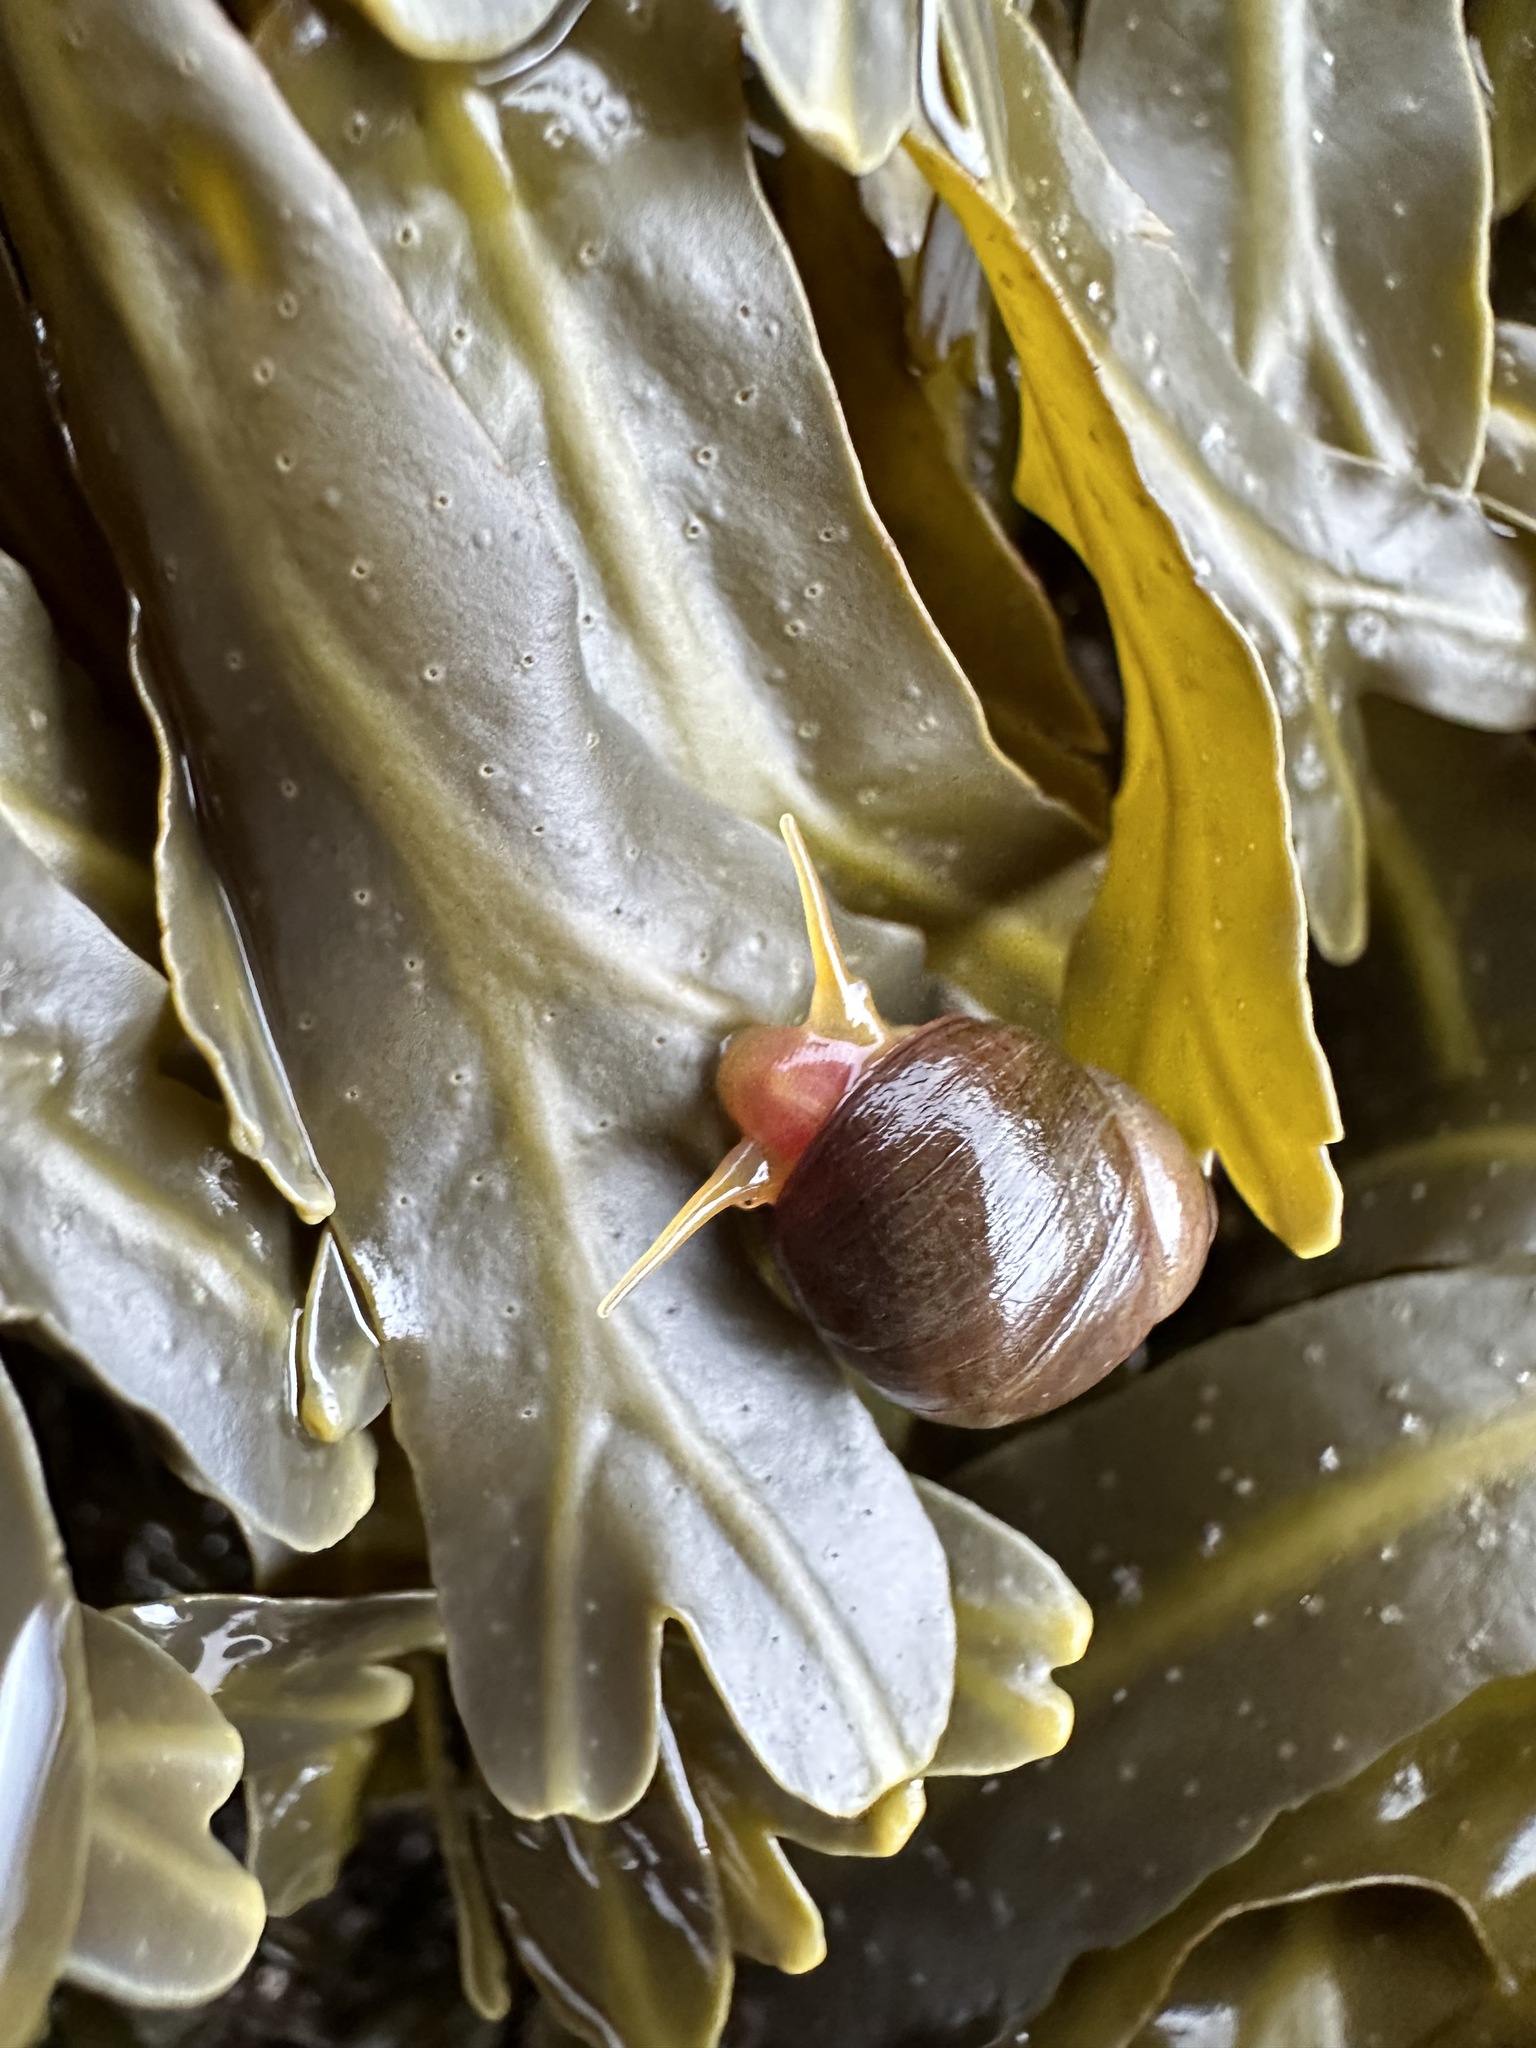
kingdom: Animalia
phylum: Mollusca
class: Gastropoda
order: Littorinimorpha
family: Littorinidae
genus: Littorina
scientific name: Littorina obtusata
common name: Flat periwinkle
